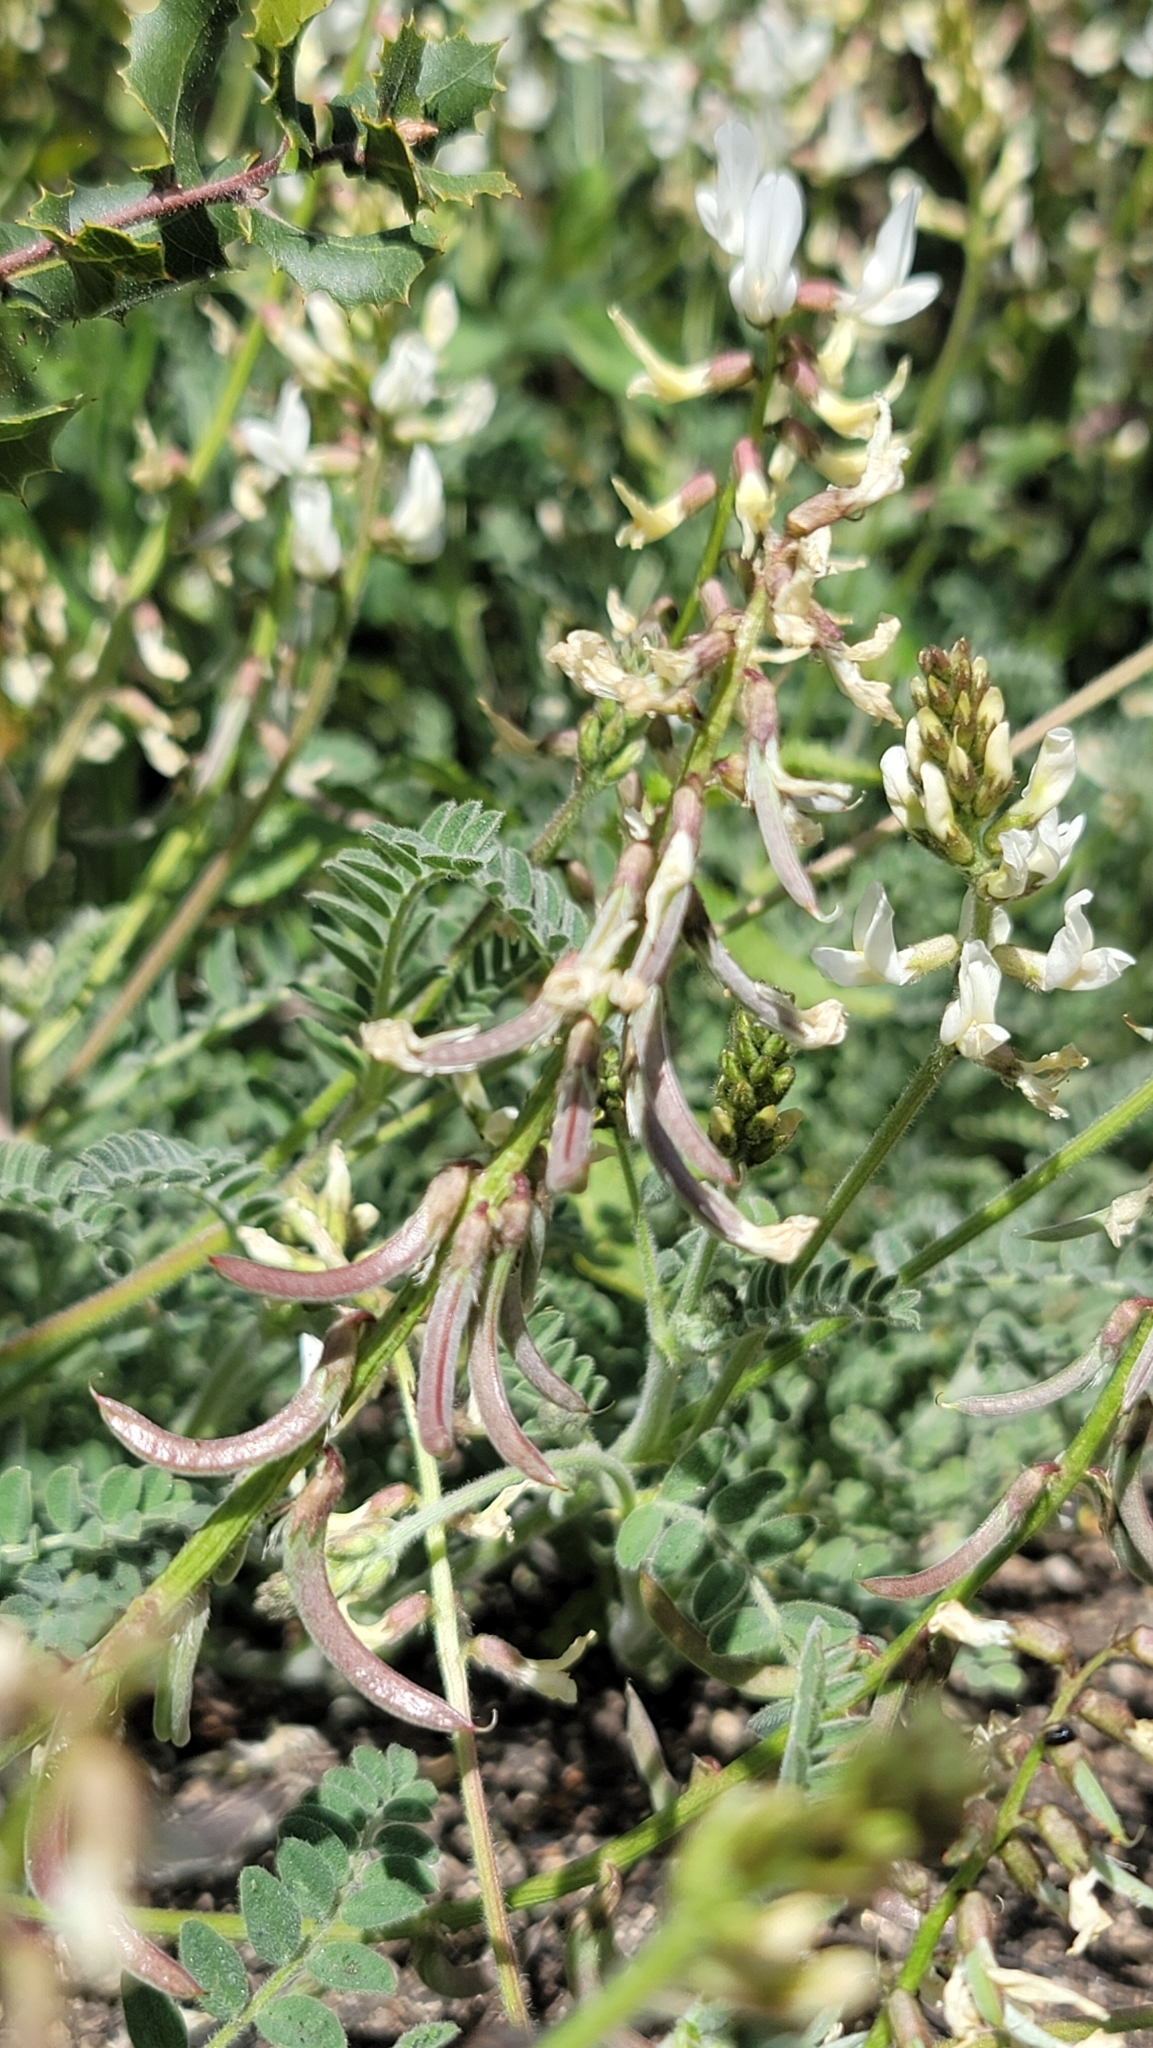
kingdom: Plantae
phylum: Tracheophyta
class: Magnoliopsida
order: Fabales
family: Fabaceae
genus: Astragalus
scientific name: Astragalus congdonii
